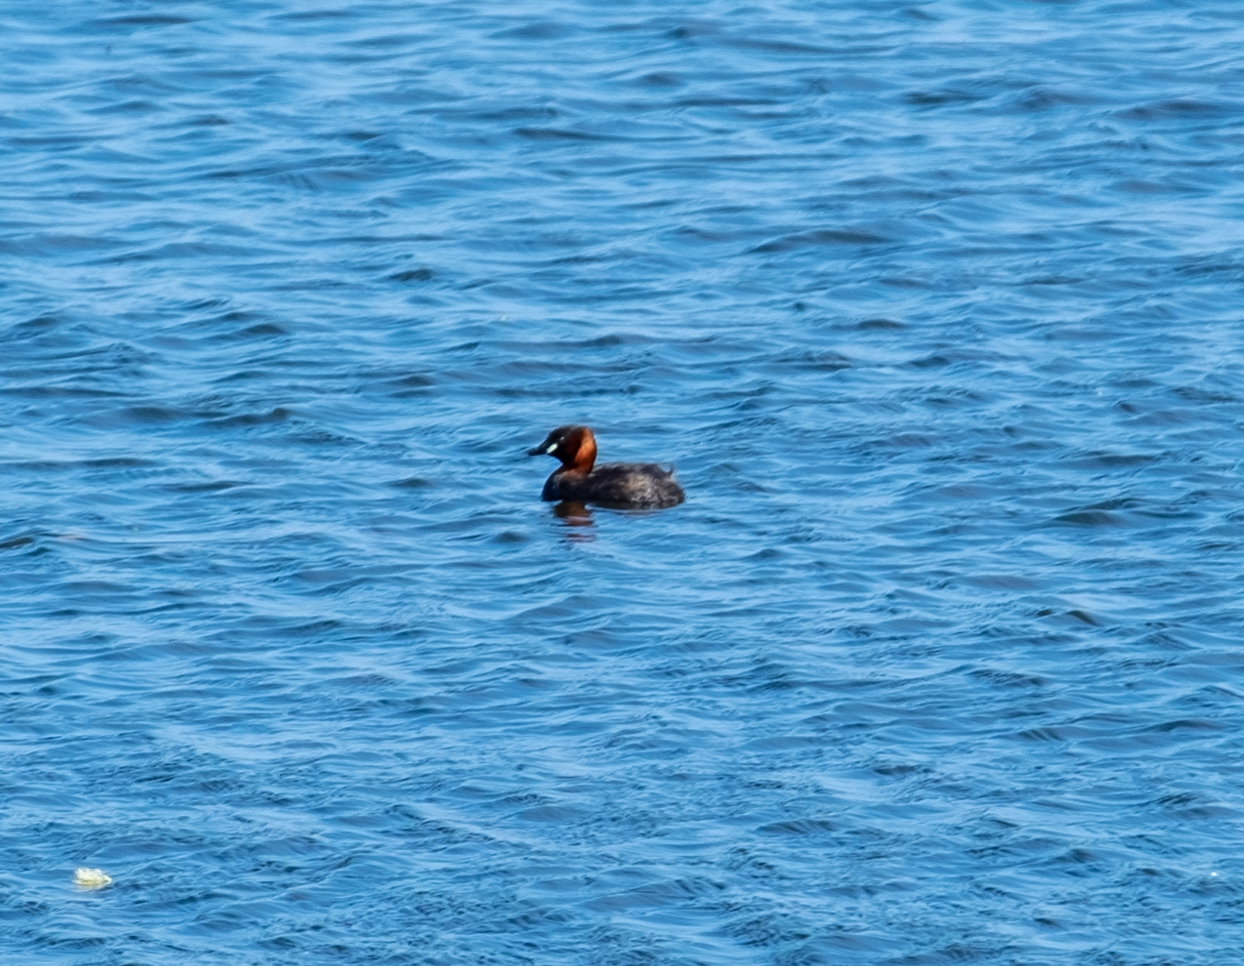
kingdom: Animalia
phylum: Chordata
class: Aves
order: Podicipediformes
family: Podicipedidae
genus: Tachybaptus
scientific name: Tachybaptus ruficollis
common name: Little grebe
